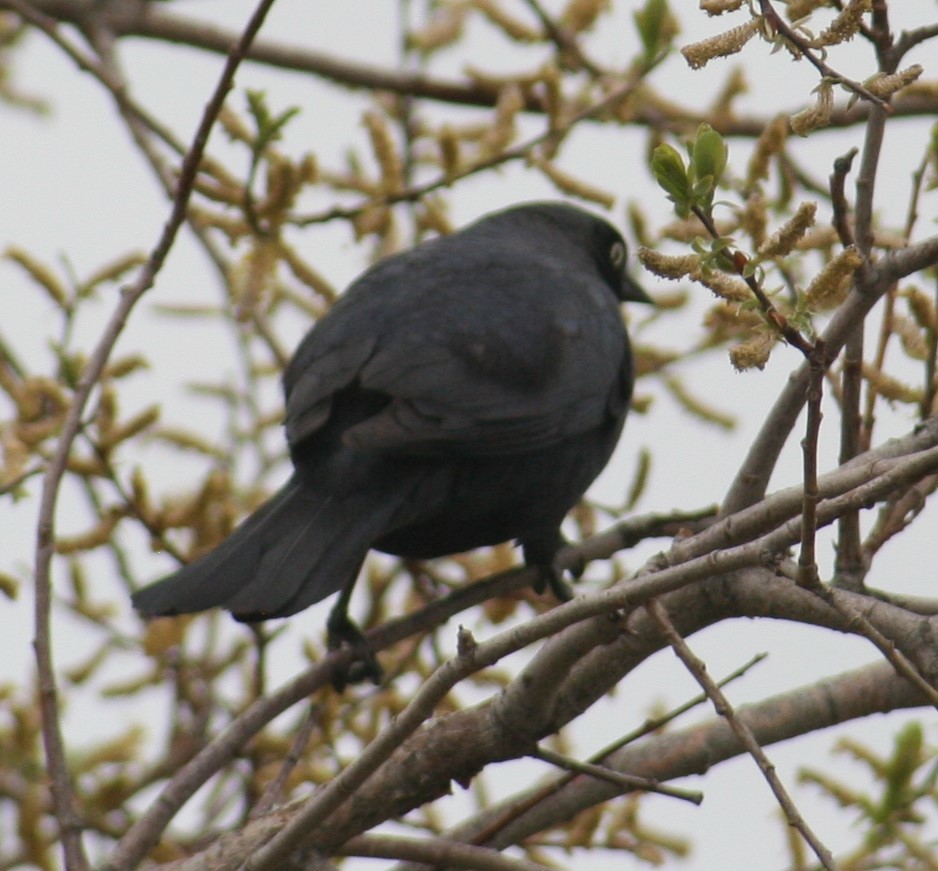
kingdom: Animalia
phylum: Chordata
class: Aves
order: Passeriformes
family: Icteridae
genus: Euphagus
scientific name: Euphagus cyanocephalus
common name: Brewer's blackbird
